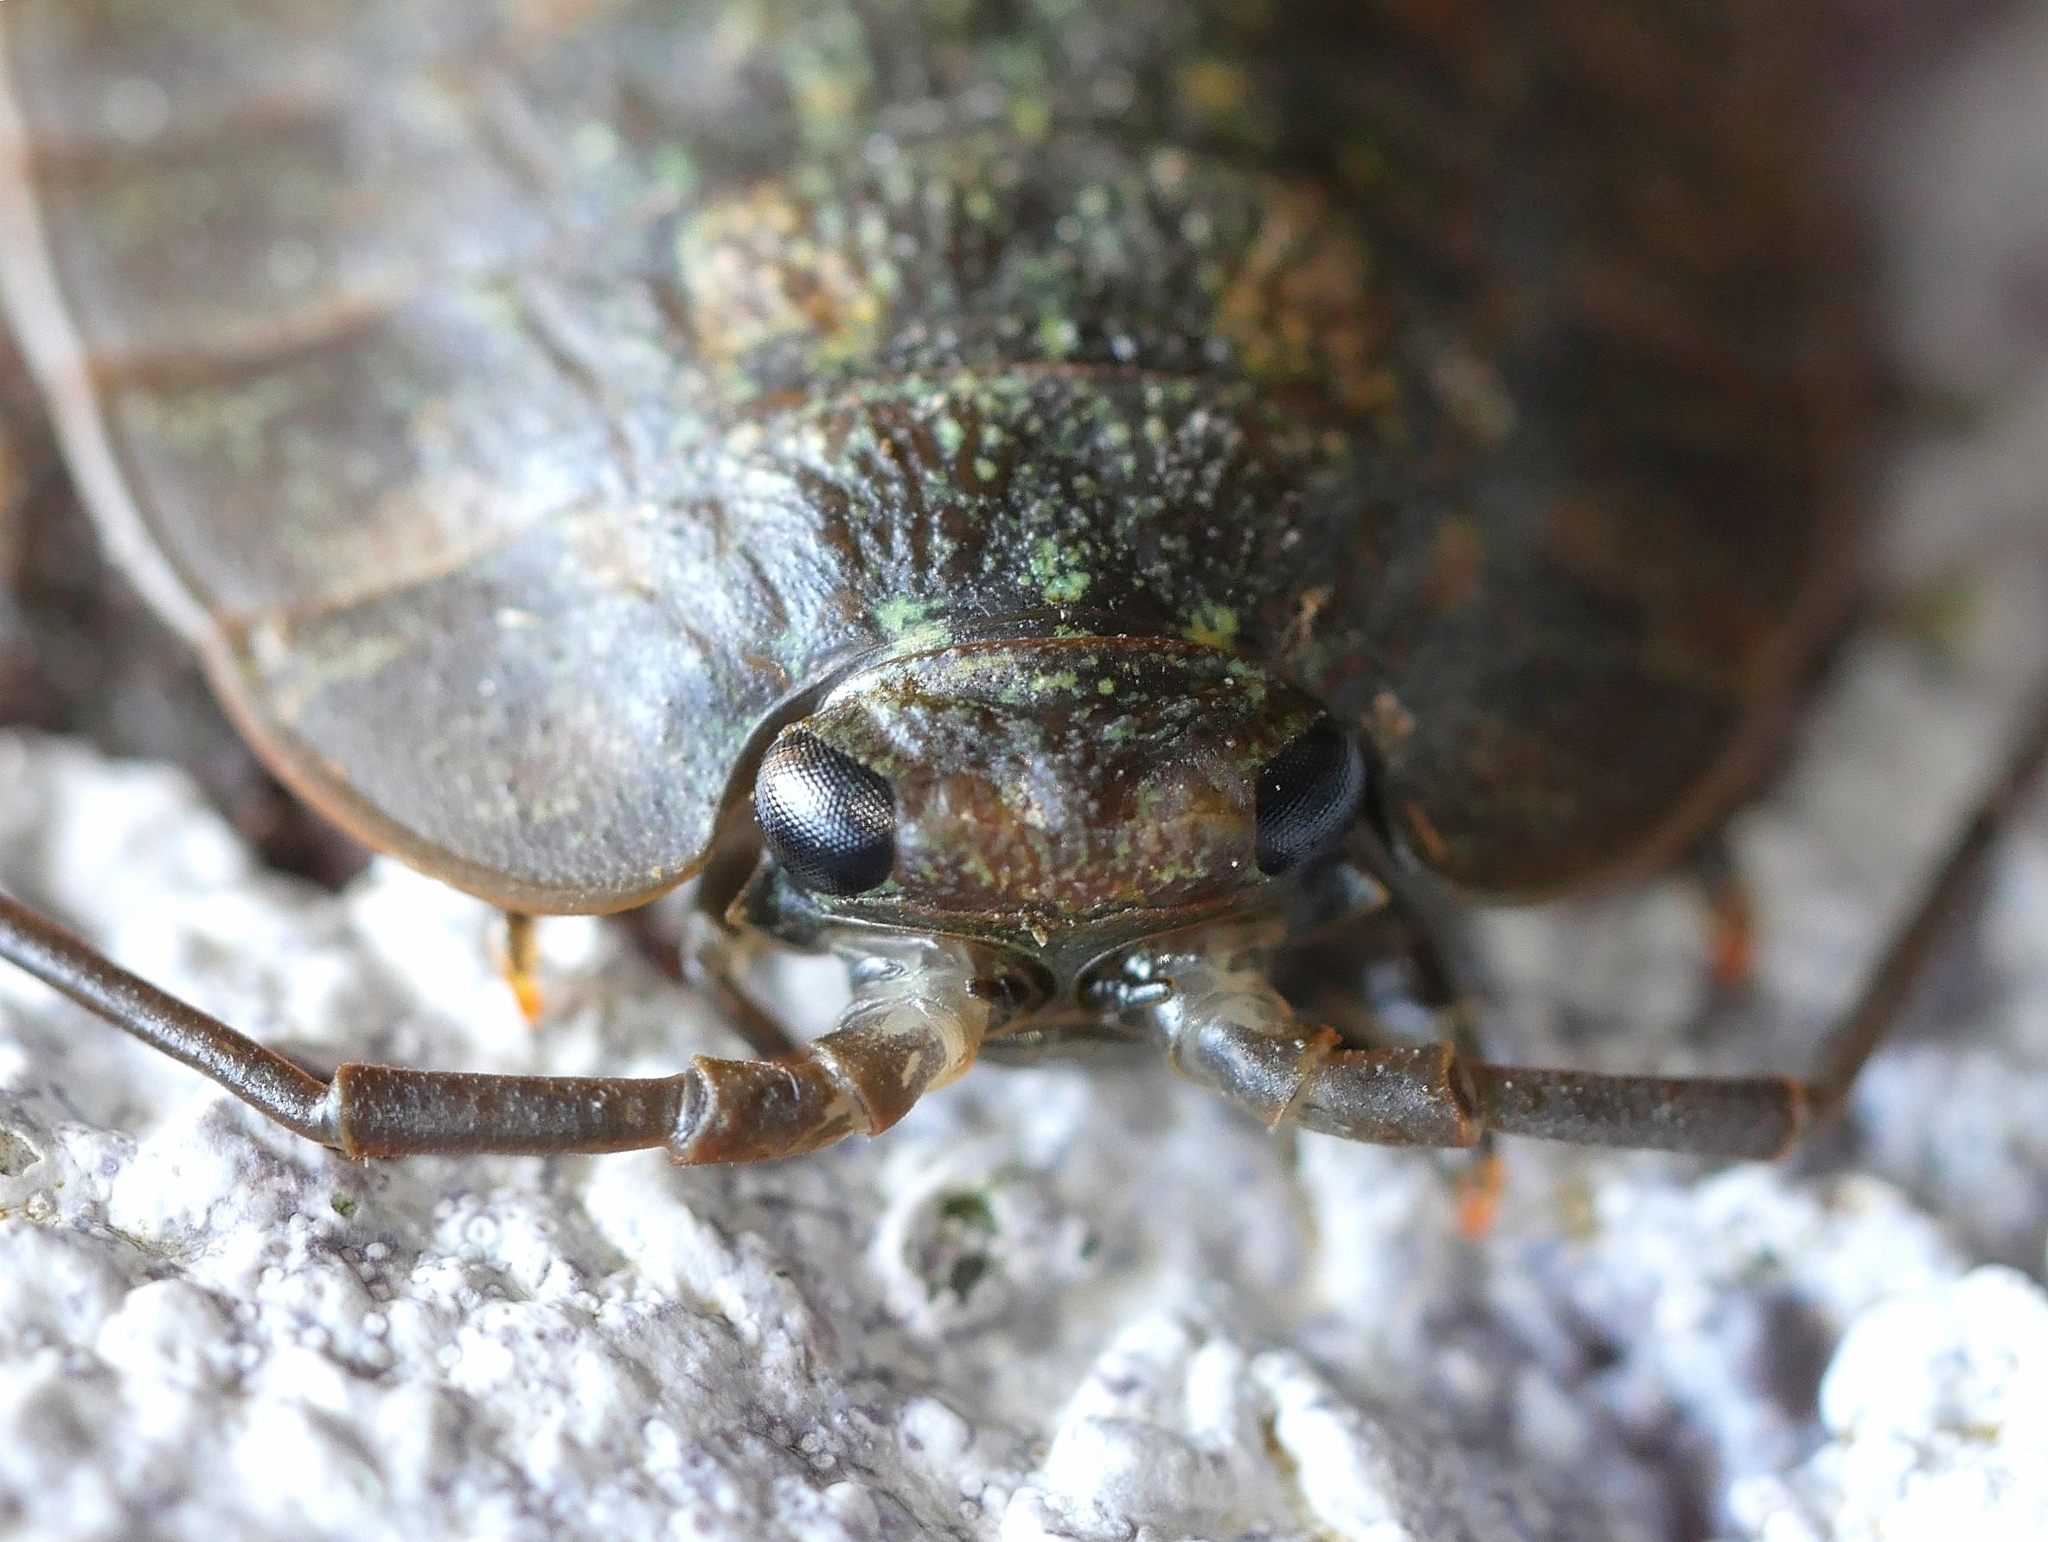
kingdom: Animalia
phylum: Arthropoda
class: Malacostraca
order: Isopoda
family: Ligiidae
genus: Ligia
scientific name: Ligia pallasii
